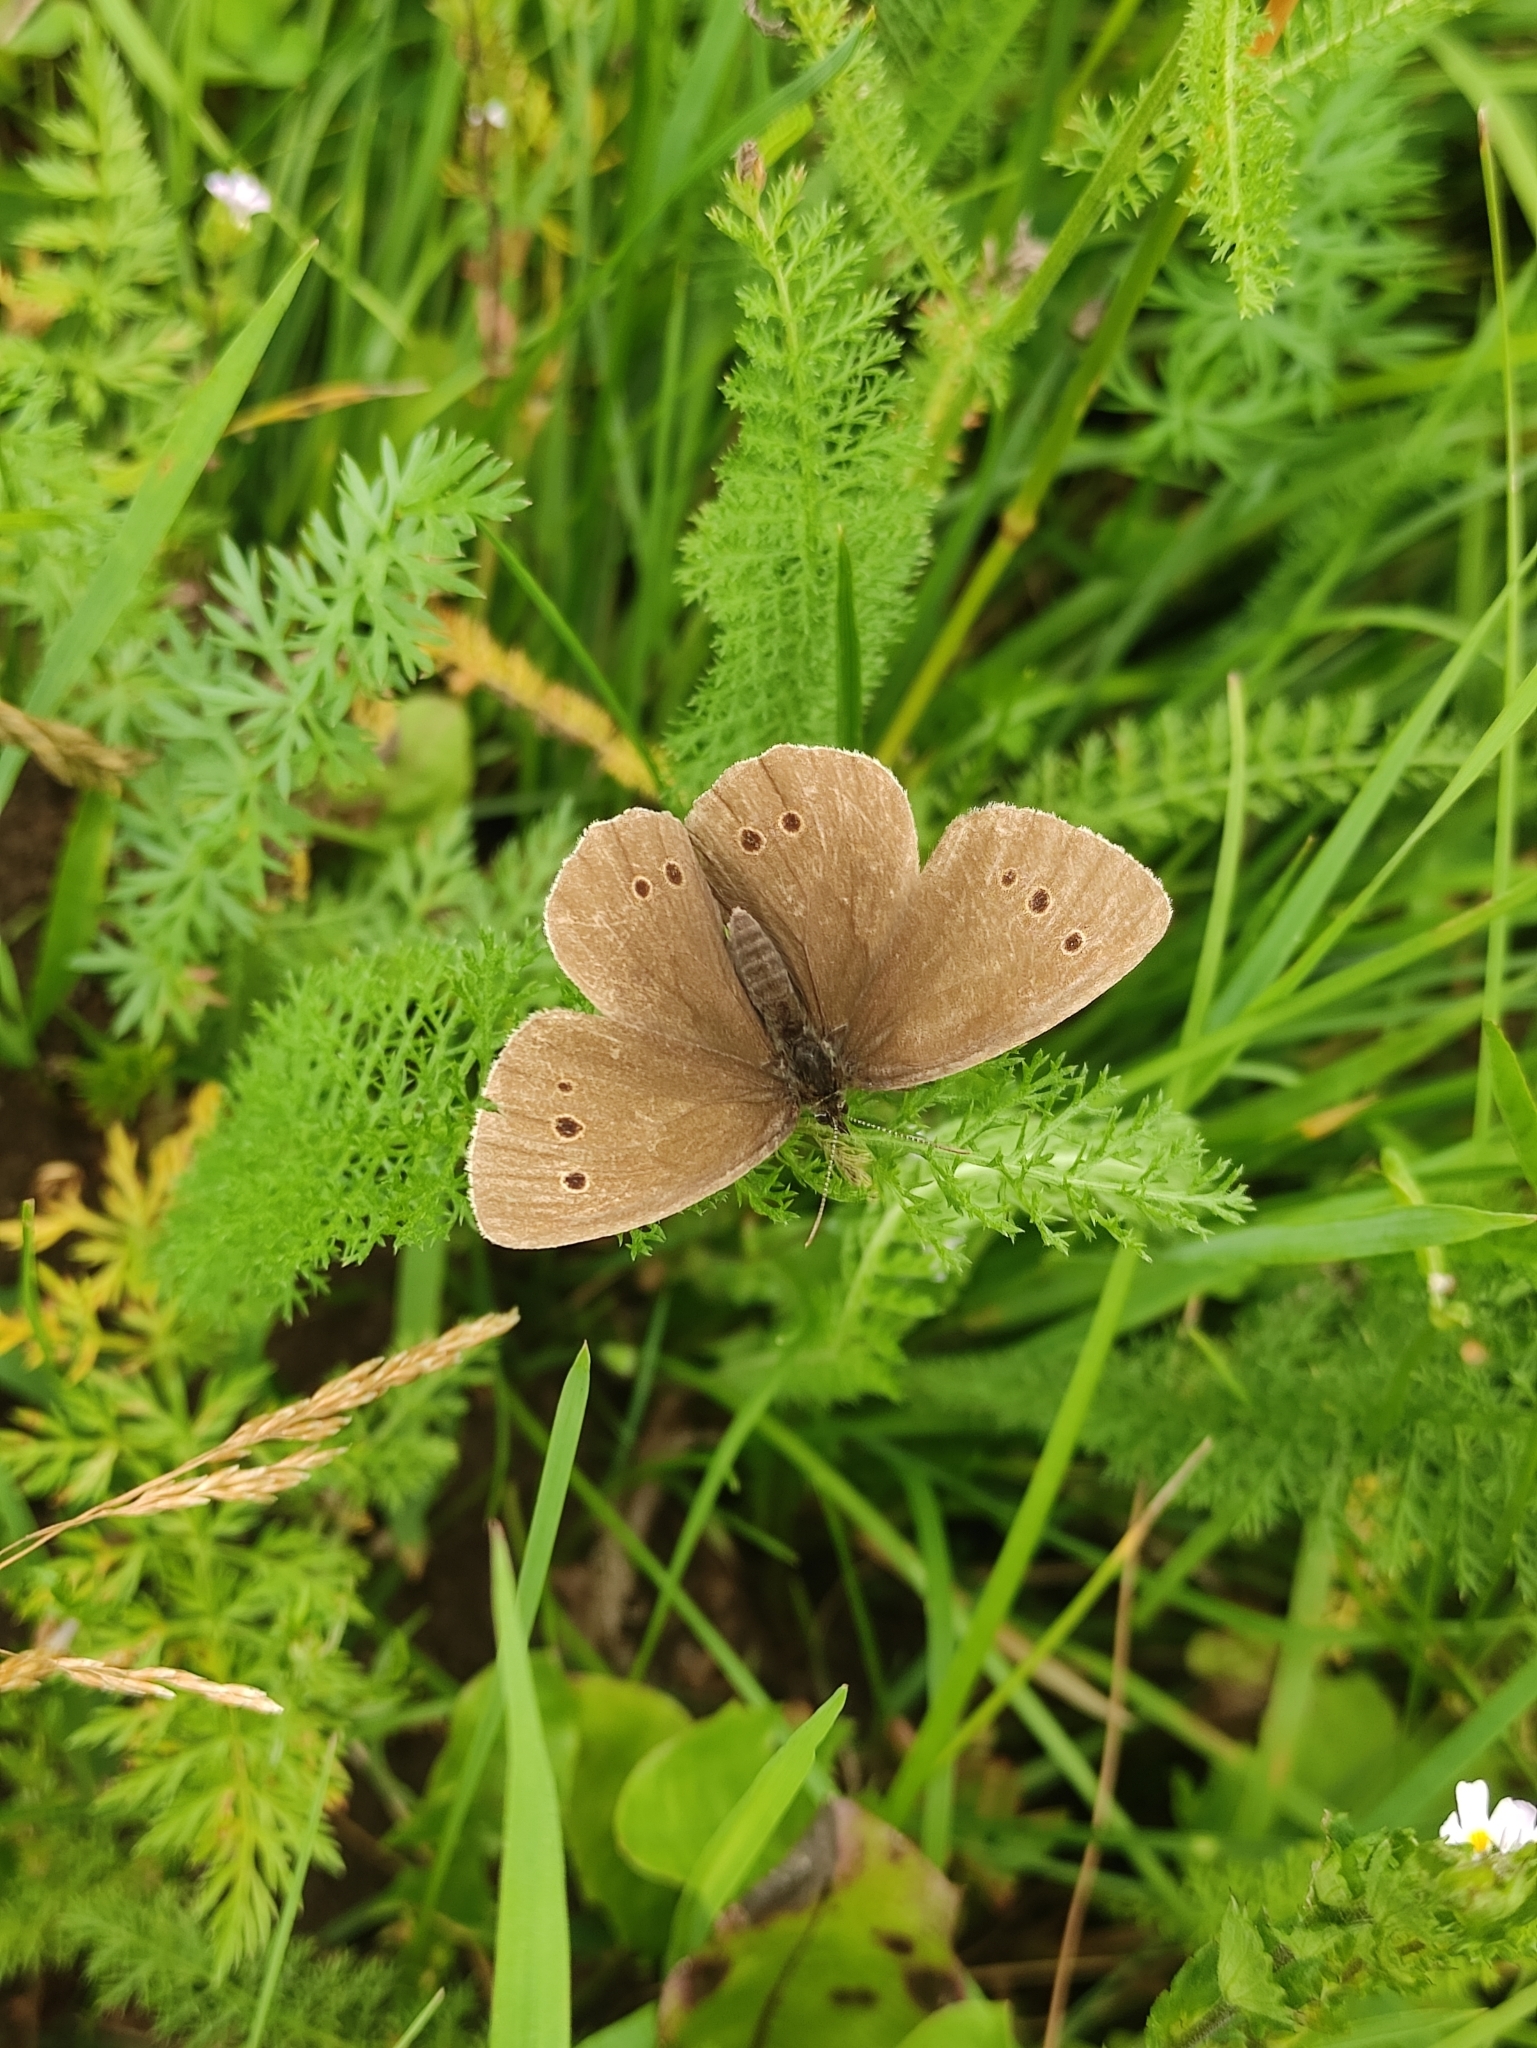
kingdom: Animalia
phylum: Arthropoda
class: Insecta
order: Lepidoptera
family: Nymphalidae
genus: Aphantopus
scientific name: Aphantopus hyperantus
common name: Ringlet
